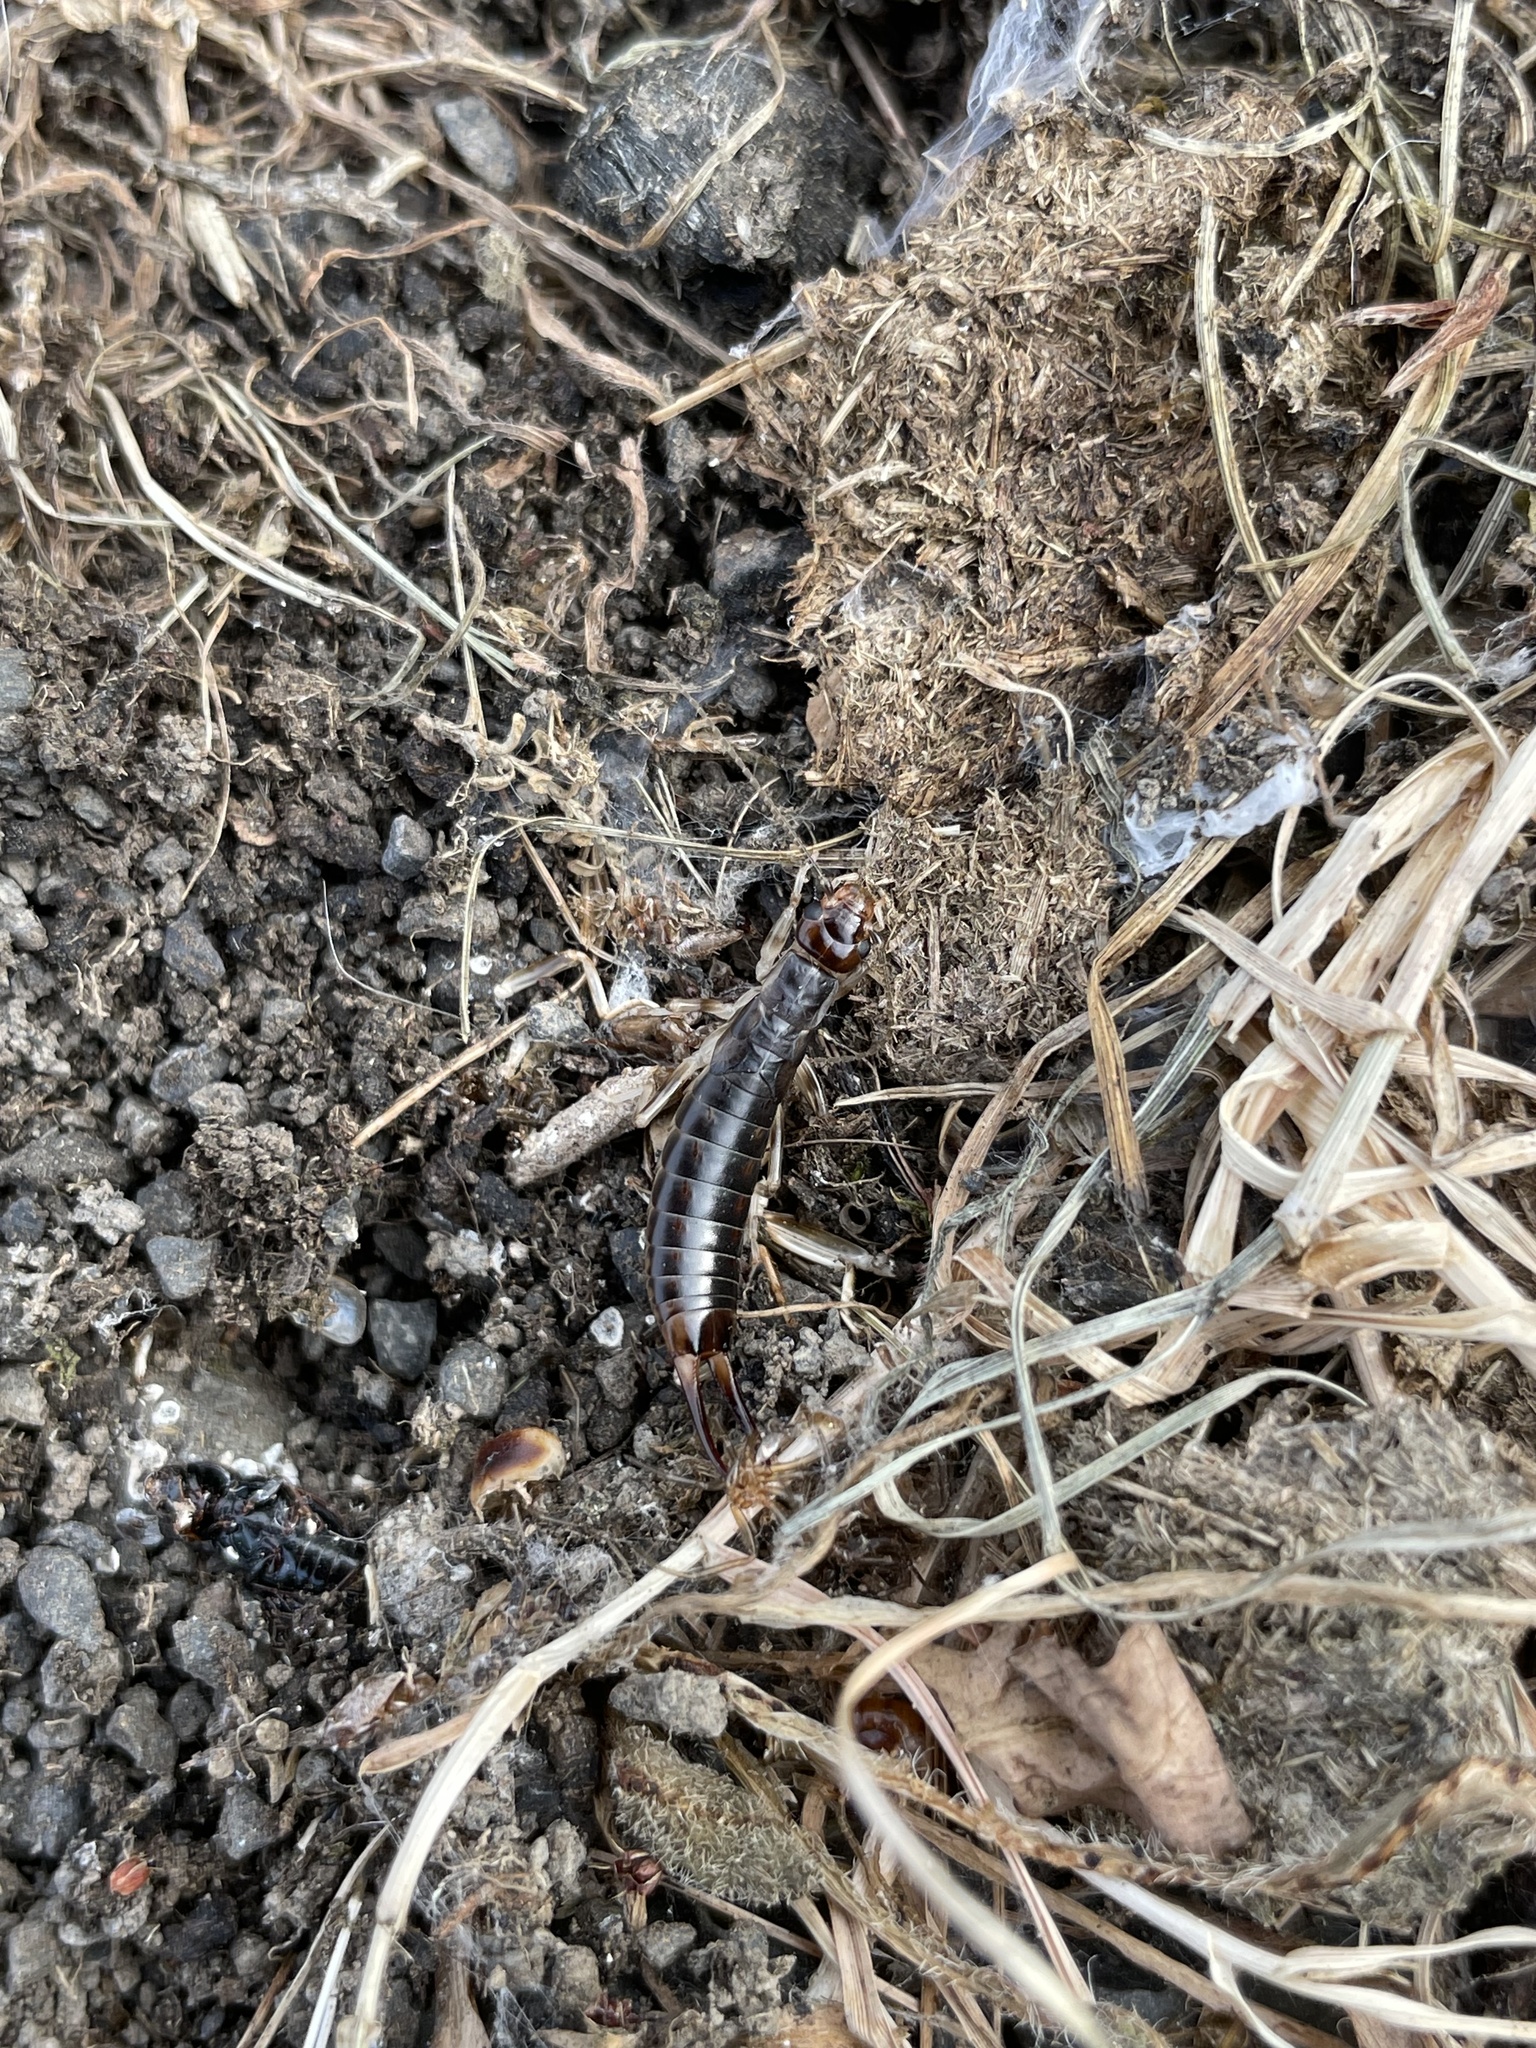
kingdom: Animalia
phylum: Arthropoda
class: Insecta
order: Dermaptera
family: Labiduridae
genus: Labidura
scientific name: Labidura riparia
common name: Striped earwig
